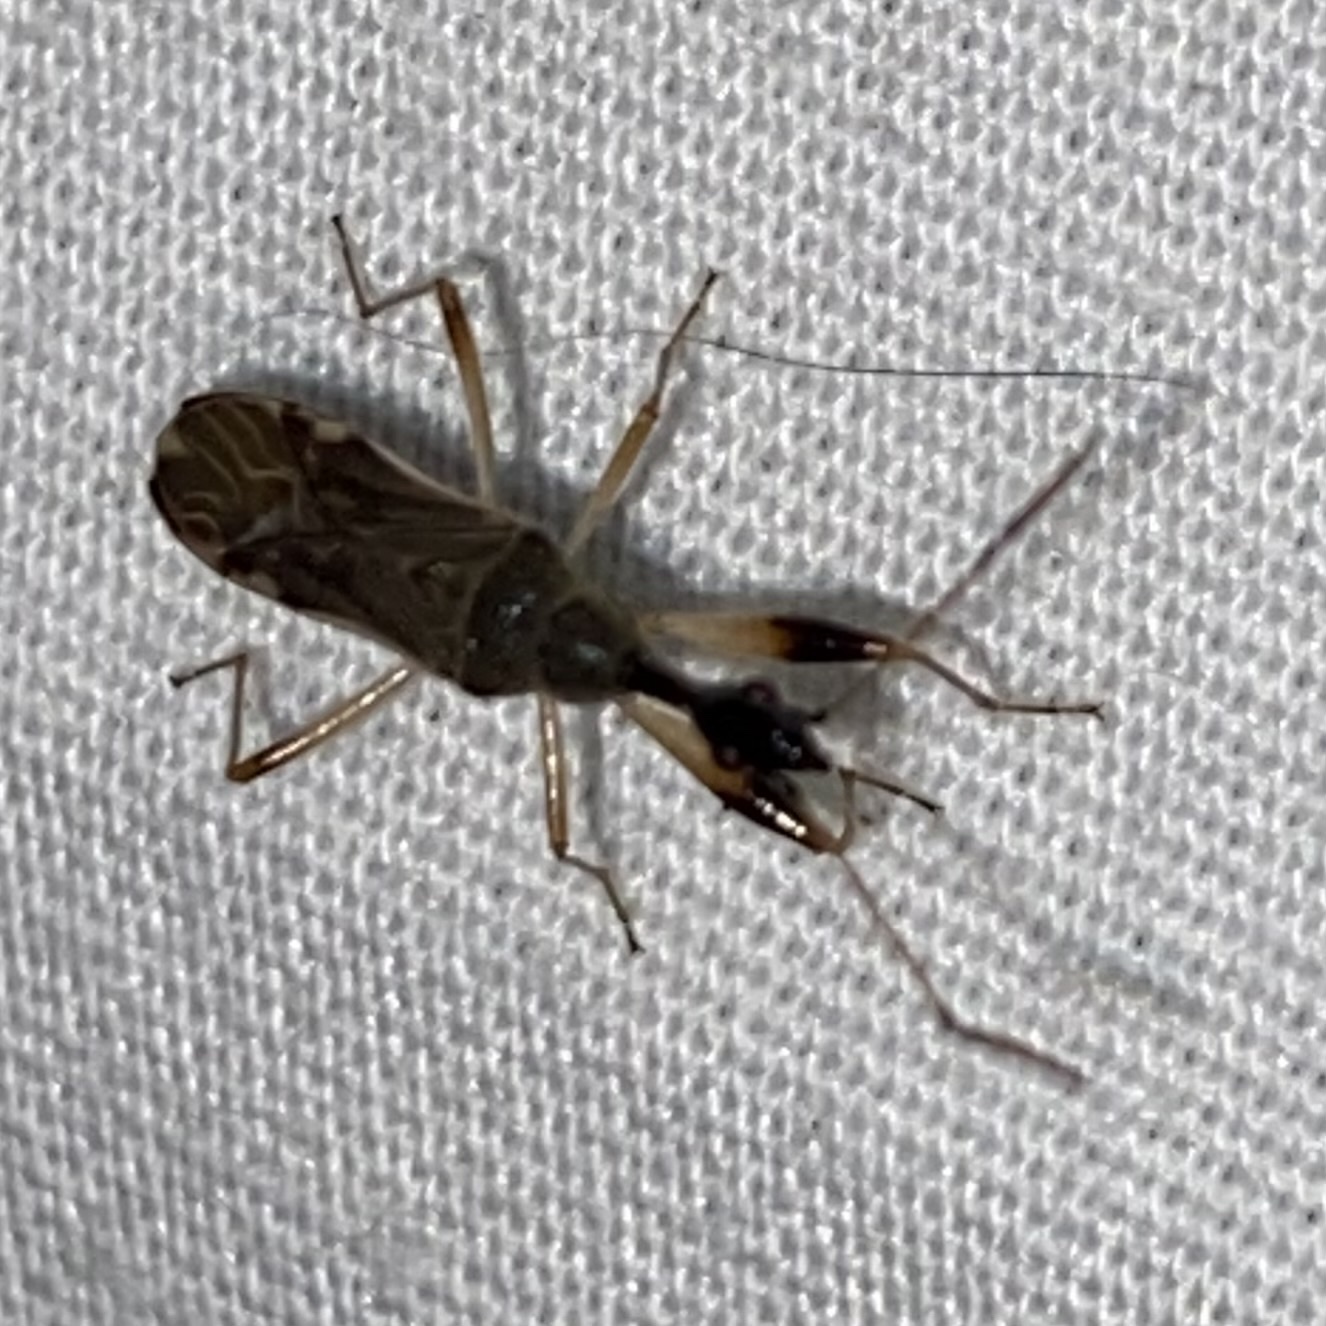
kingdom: Animalia
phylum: Arthropoda
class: Insecta
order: Hemiptera
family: Rhyparochromidae
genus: Myodocha
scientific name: Myodocha serripes
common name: Long-necked seed bug
